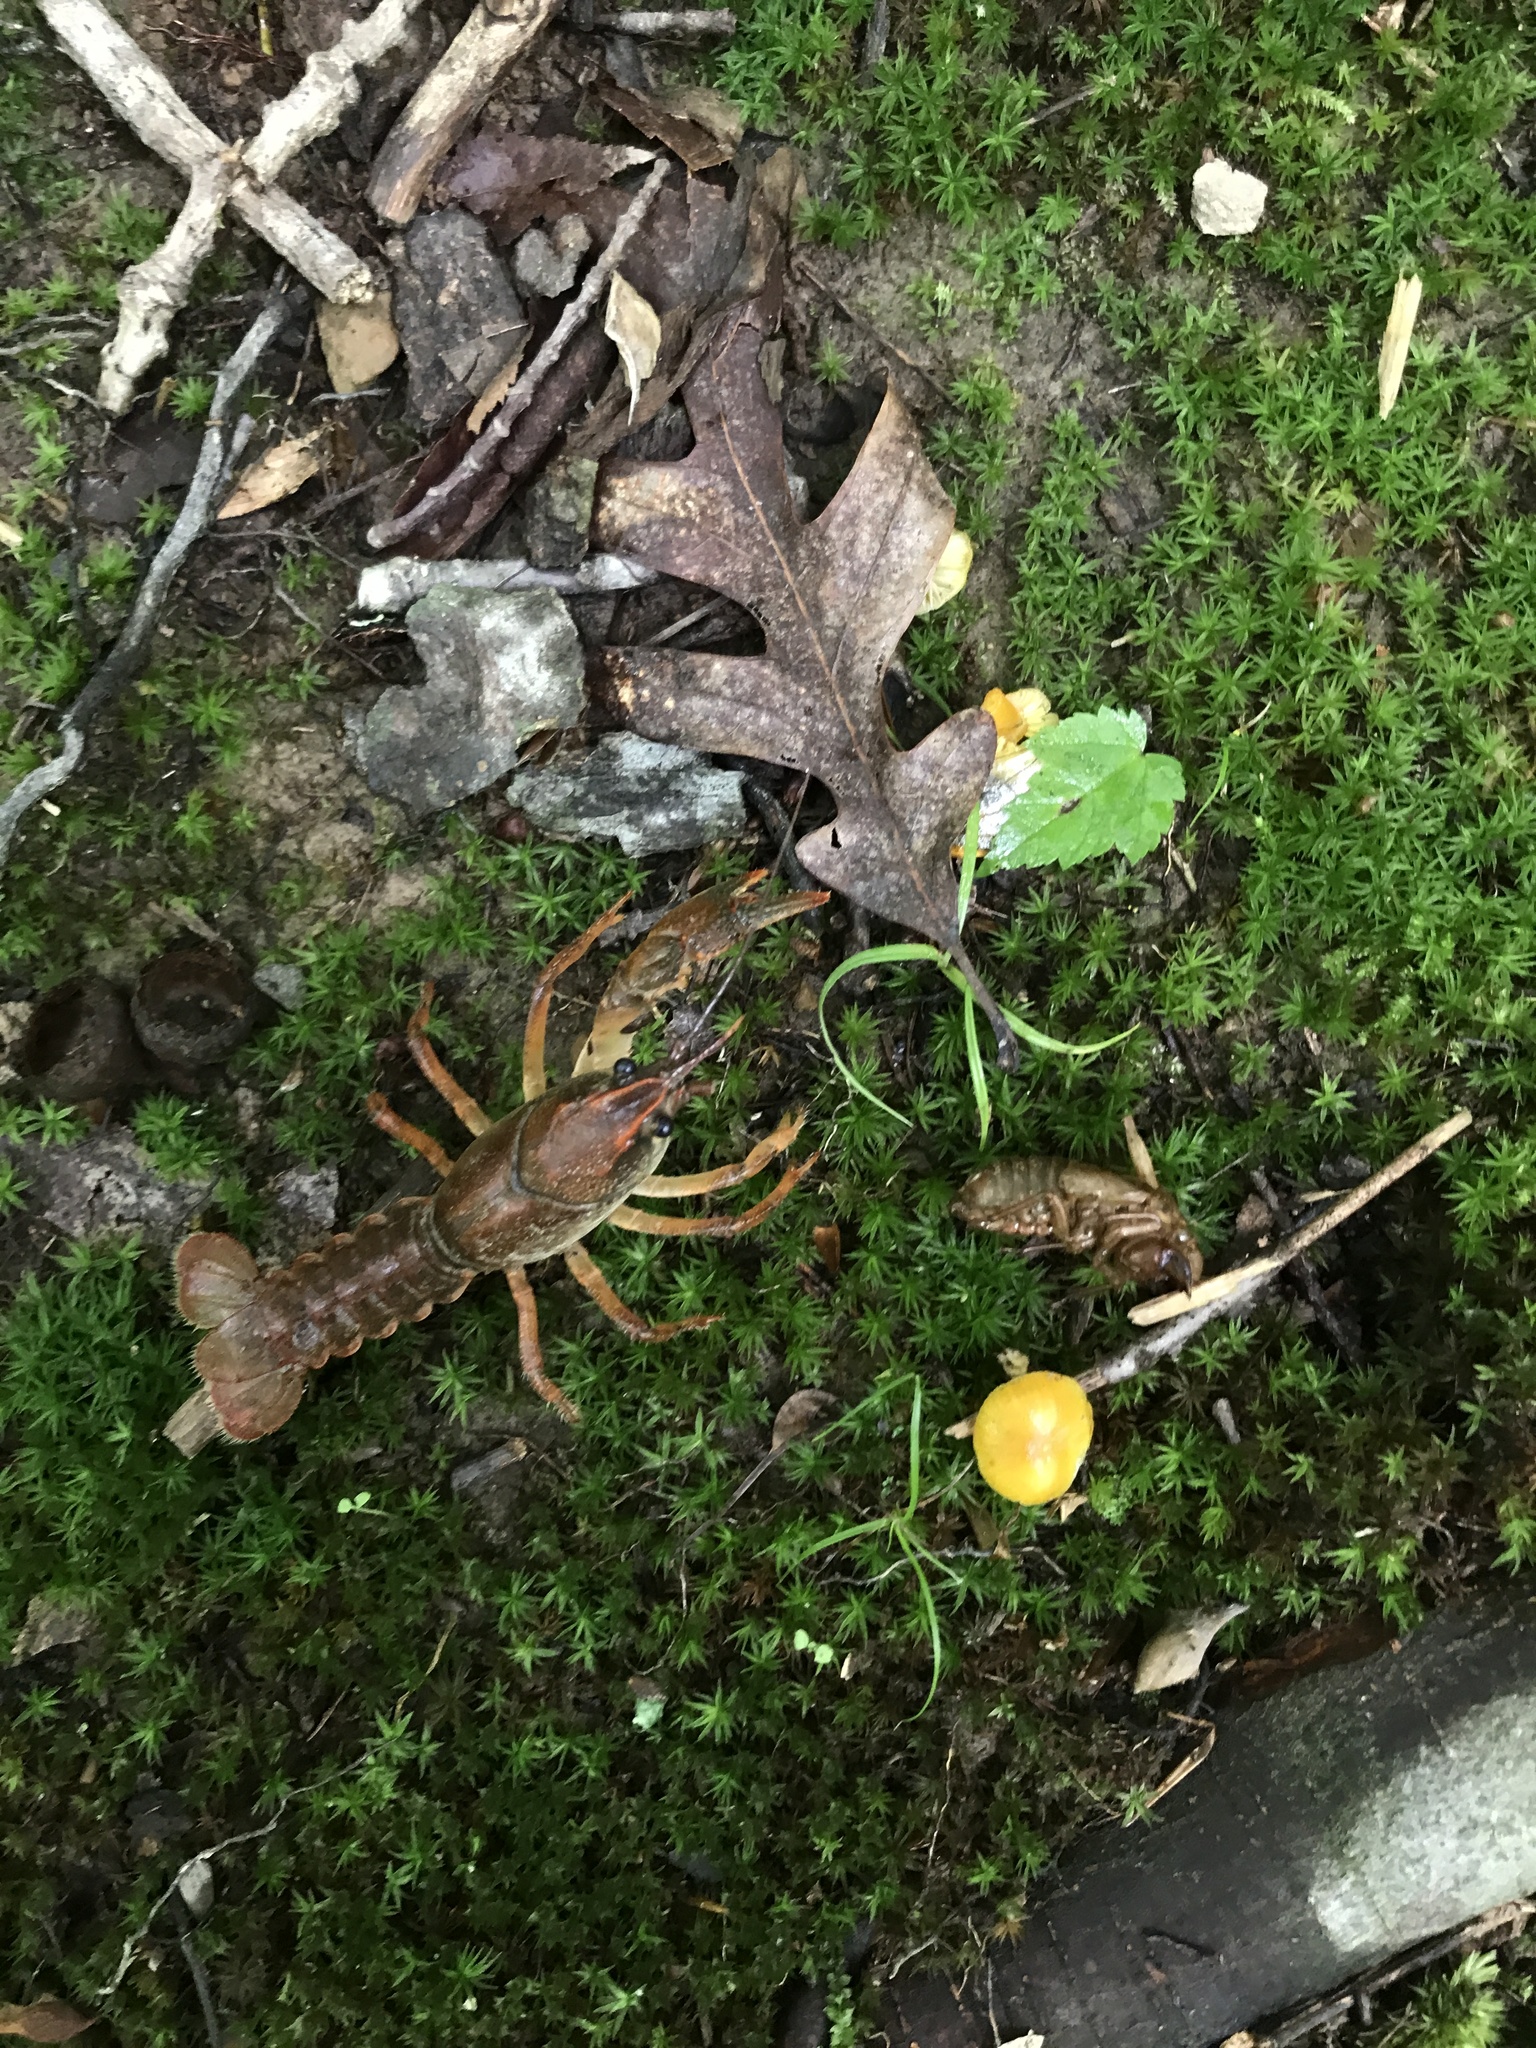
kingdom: Animalia
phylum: Arthropoda
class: Malacostraca
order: Decapoda
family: Cambaridae
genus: Procambarus
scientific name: Procambarus gracilis
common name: Prairie crayfish
